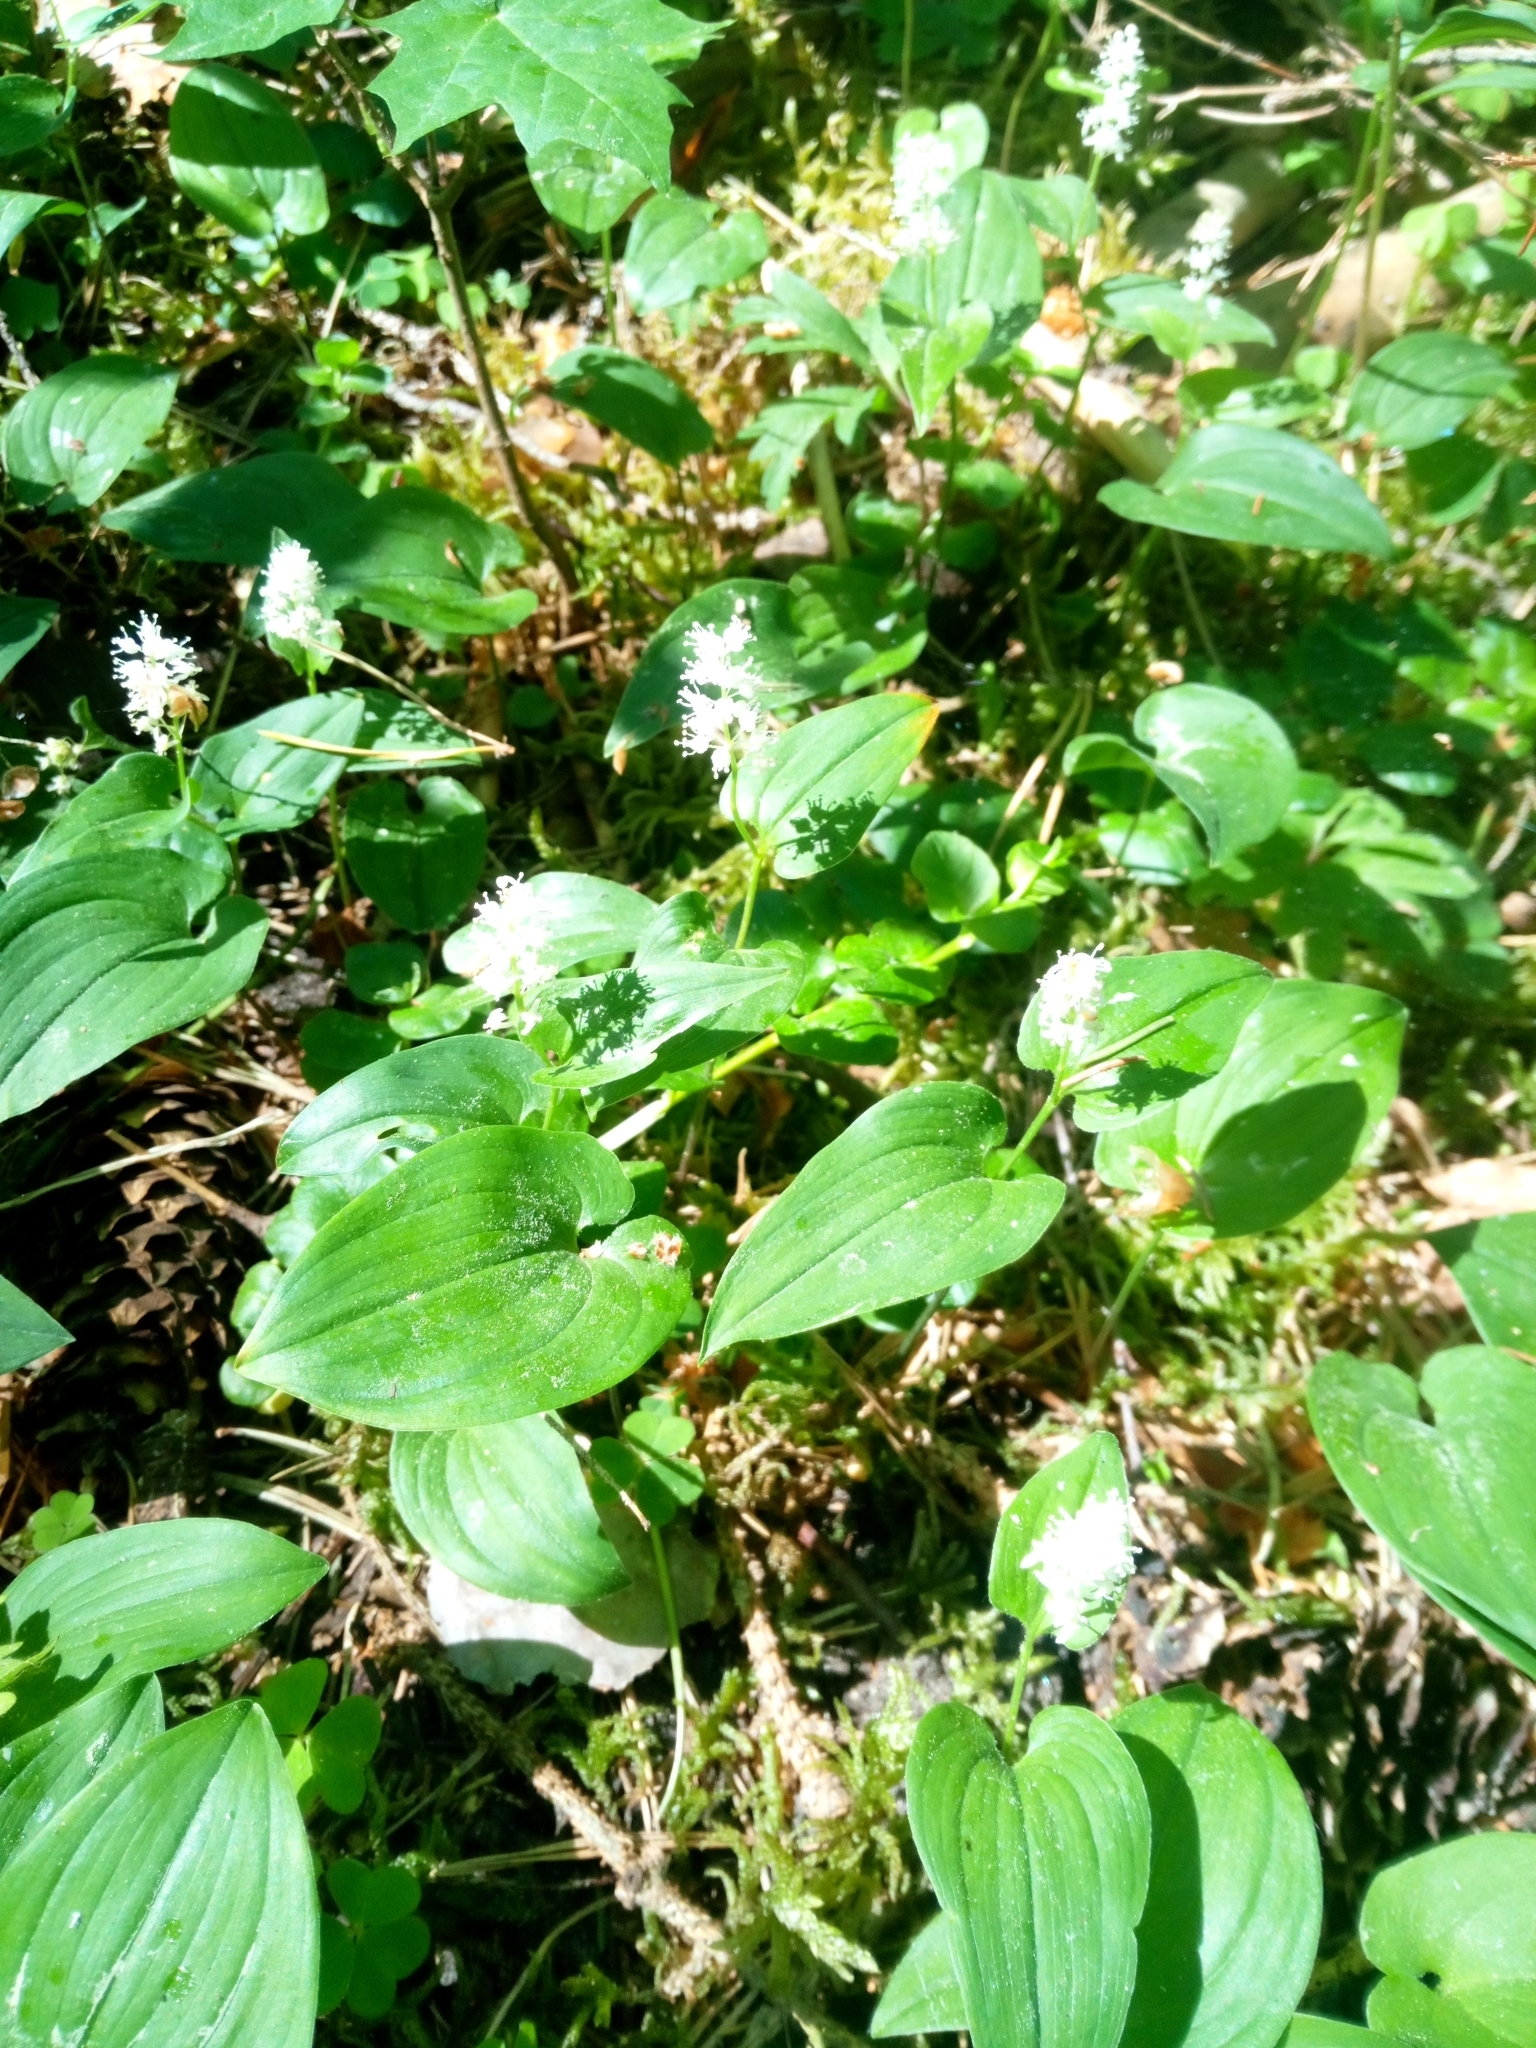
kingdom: Plantae
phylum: Tracheophyta
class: Liliopsida
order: Asparagales
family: Asparagaceae
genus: Maianthemum
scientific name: Maianthemum bifolium
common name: May lily
